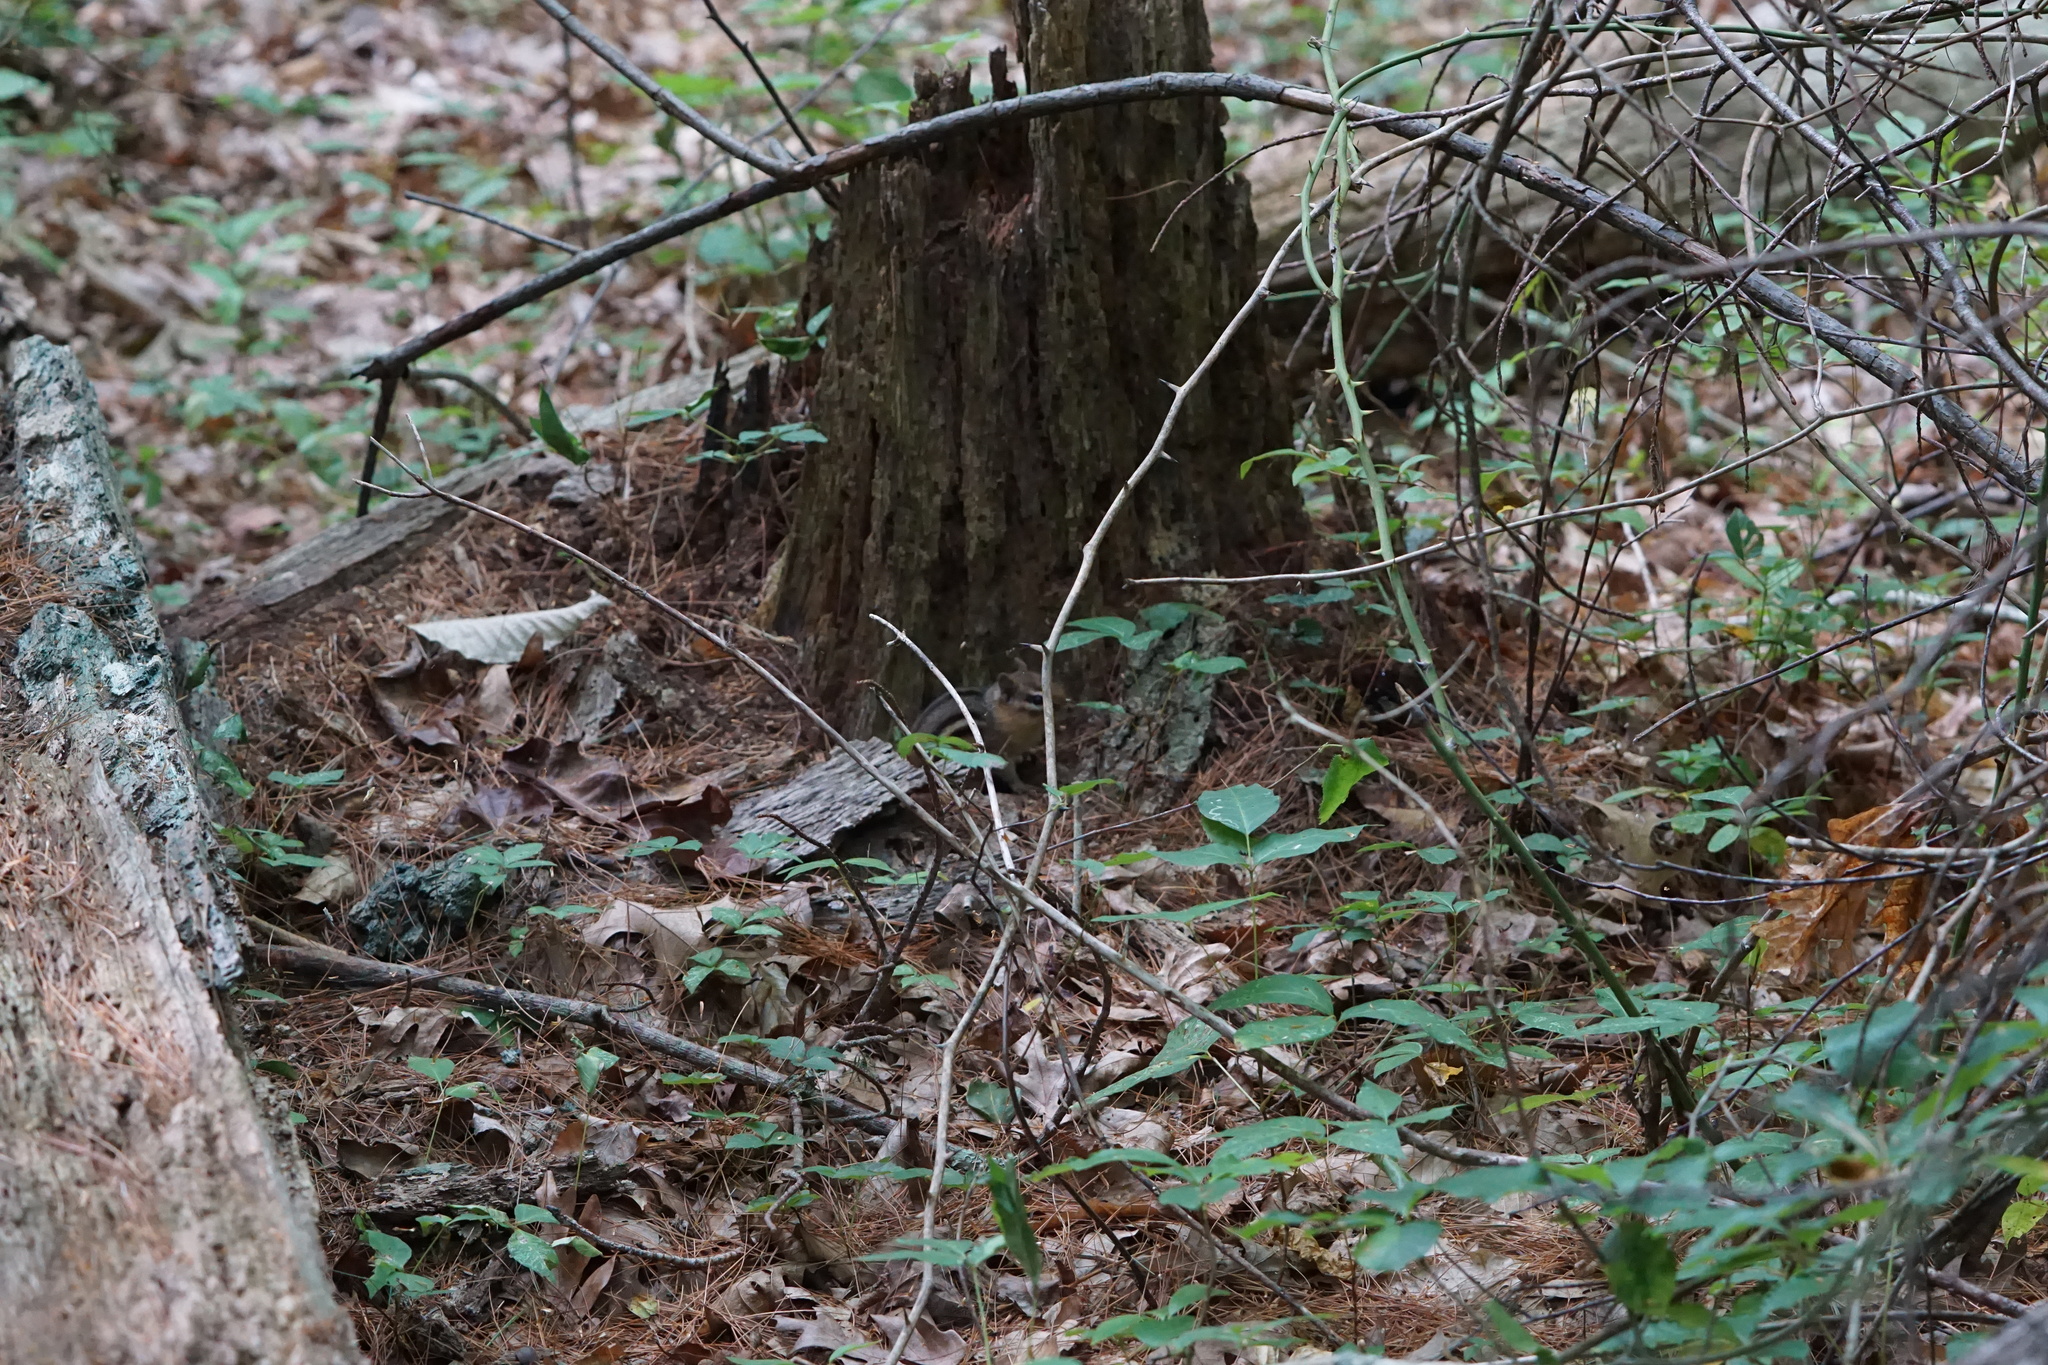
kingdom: Animalia
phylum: Chordata
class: Mammalia
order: Rodentia
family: Sciuridae
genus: Tamias
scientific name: Tamias striatus
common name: Eastern chipmunk
